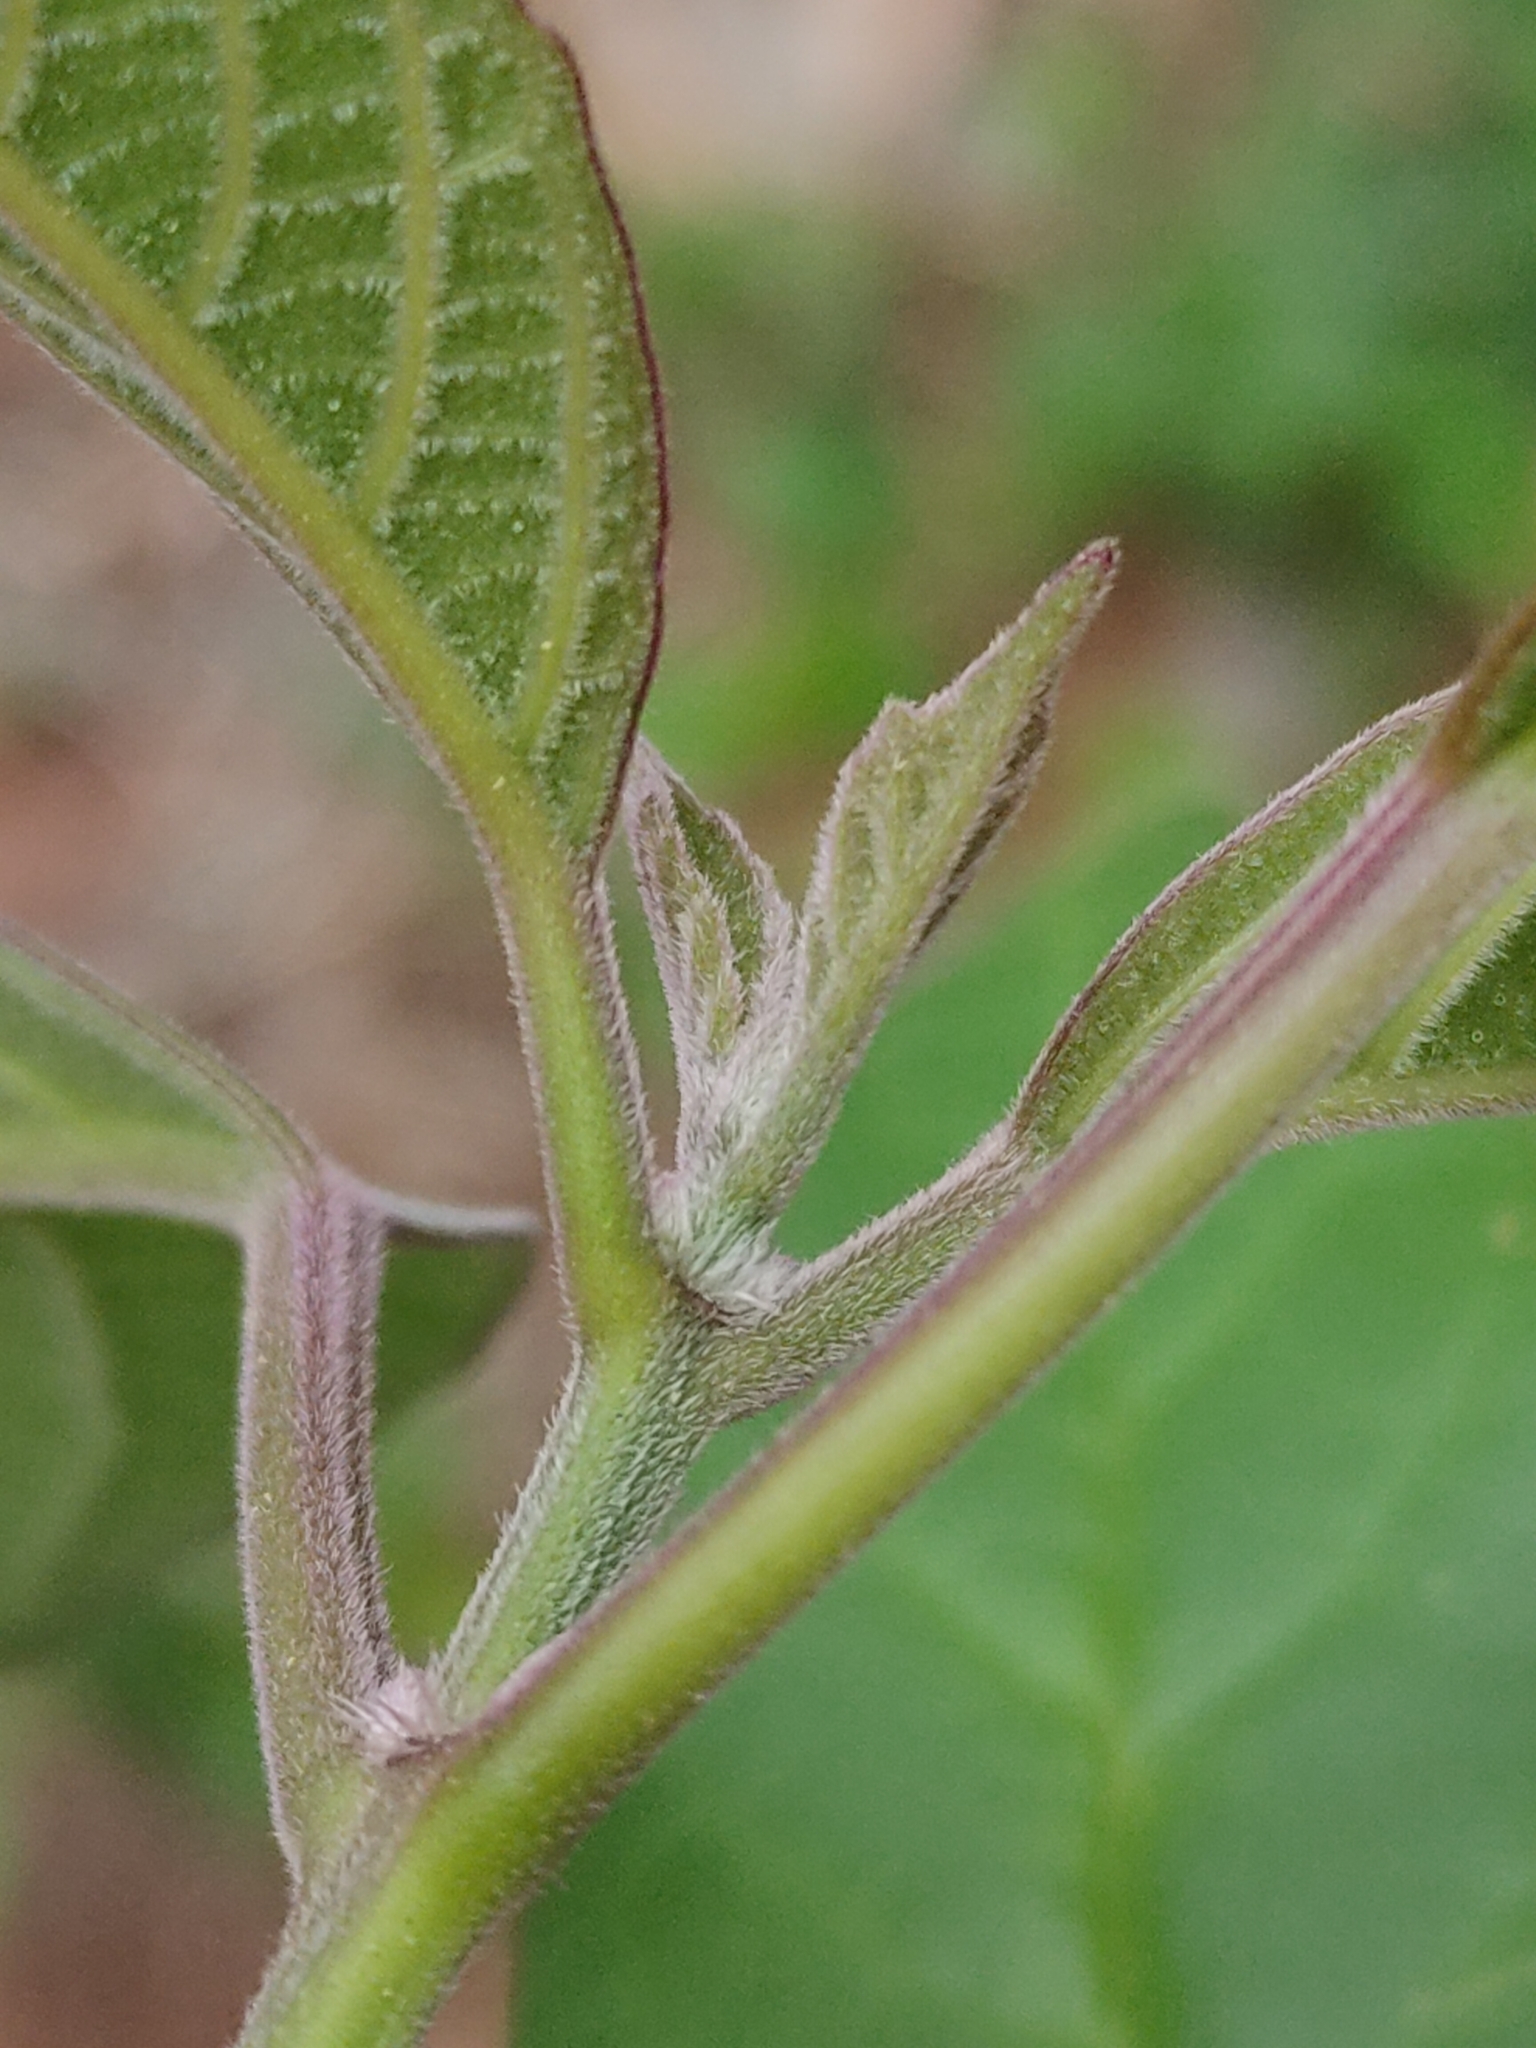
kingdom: Plantae
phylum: Tracheophyta
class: Magnoliopsida
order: Lamiales
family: Lamiaceae
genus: Clerodendrum
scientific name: Clerodendrum tomentosum
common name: Hairy clerodendrum
